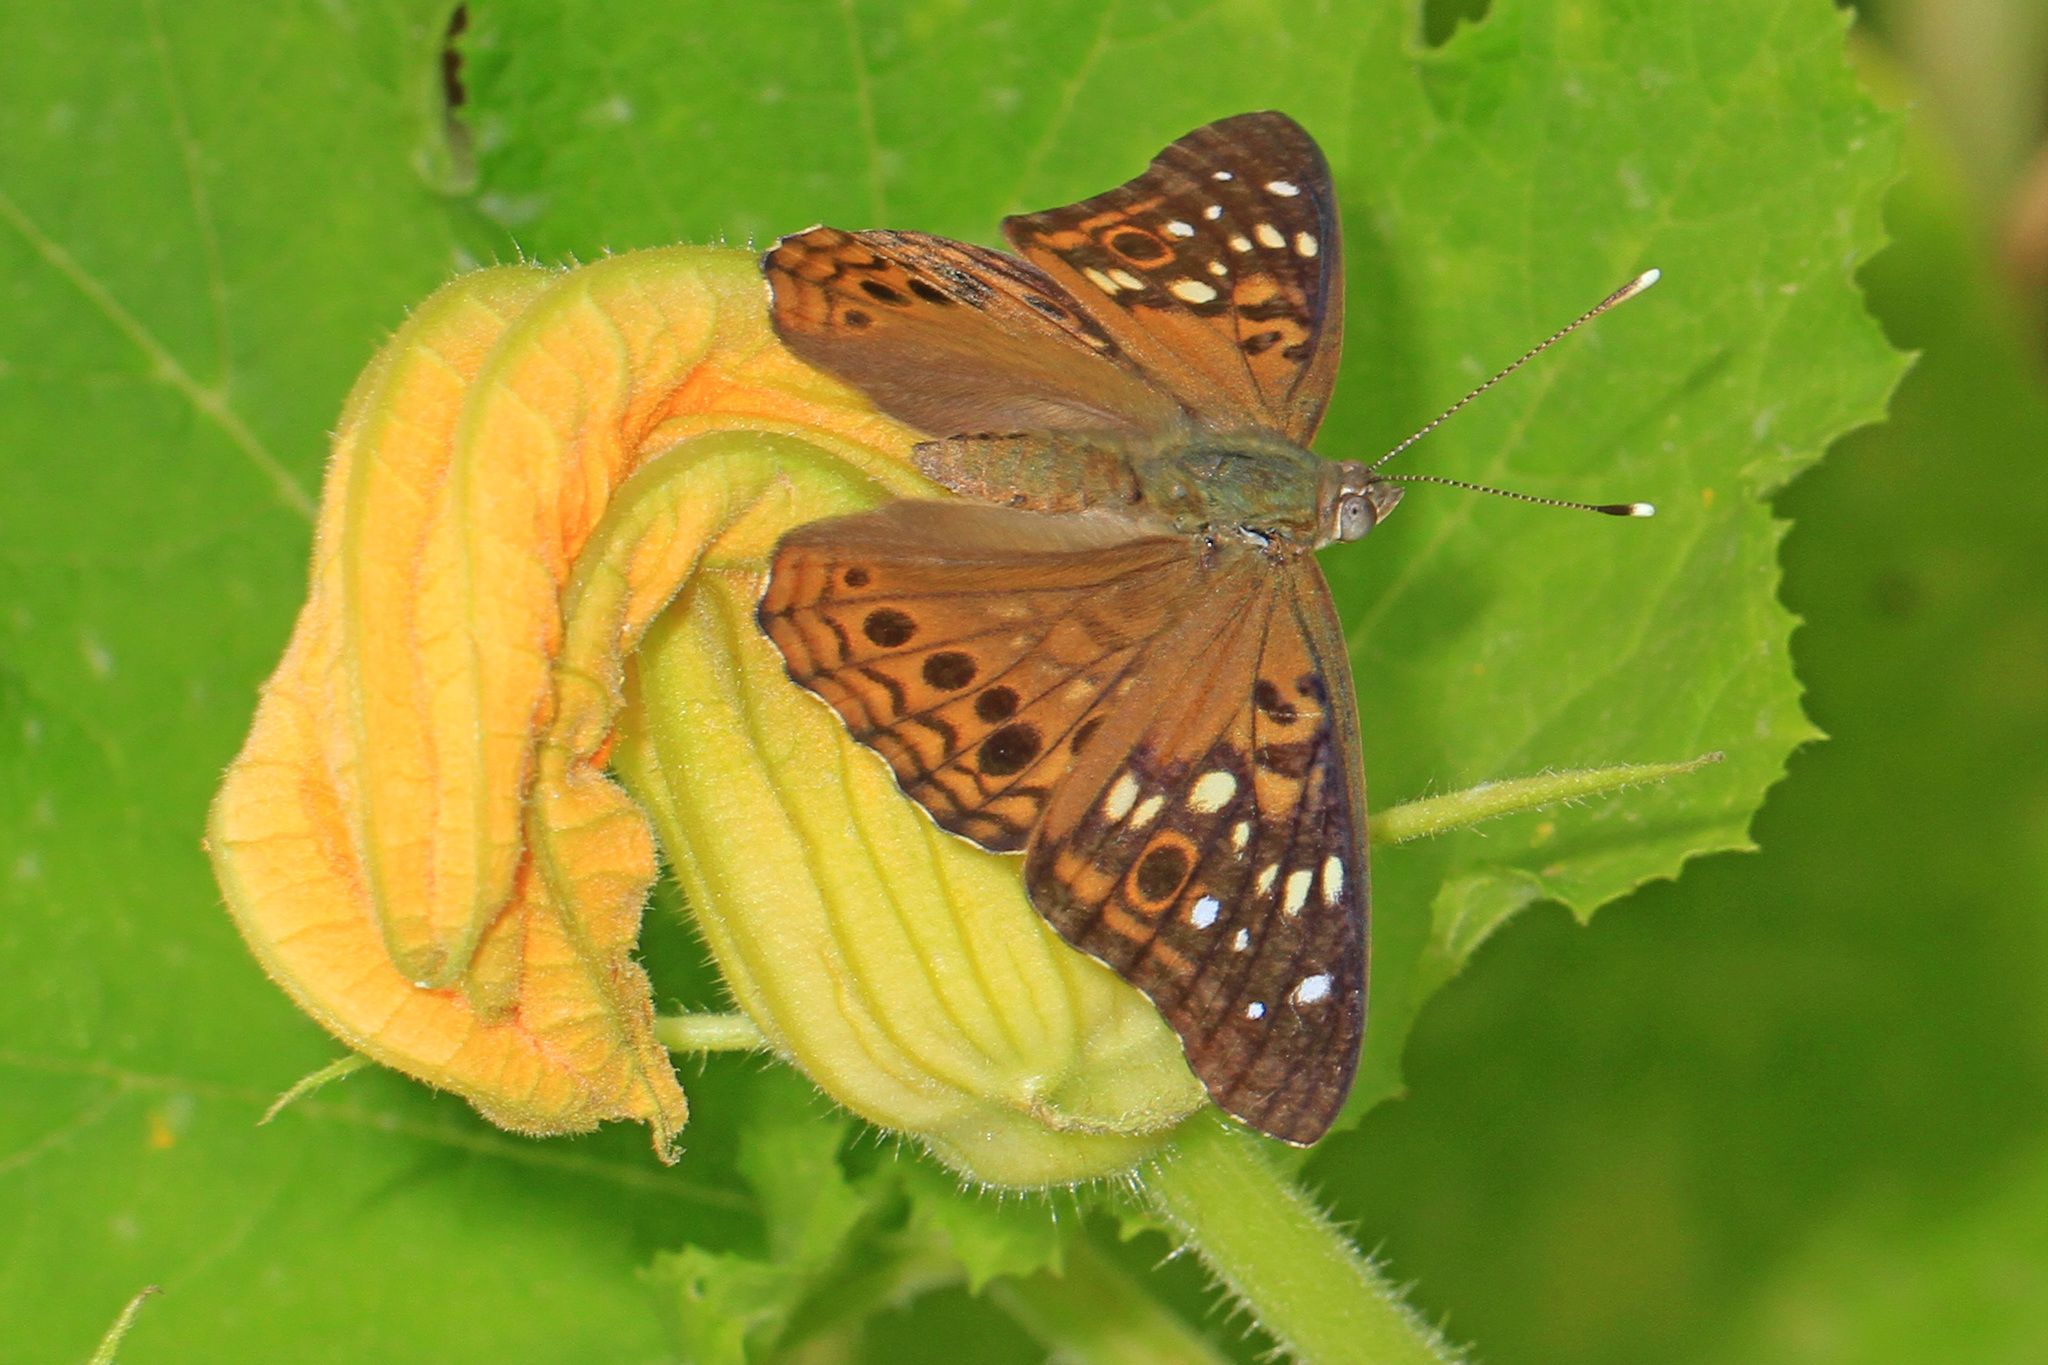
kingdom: Animalia
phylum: Arthropoda
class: Insecta
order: Lepidoptera
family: Nymphalidae
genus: Asterocampa
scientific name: Asterocampa celtis
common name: Hackberry emperor
